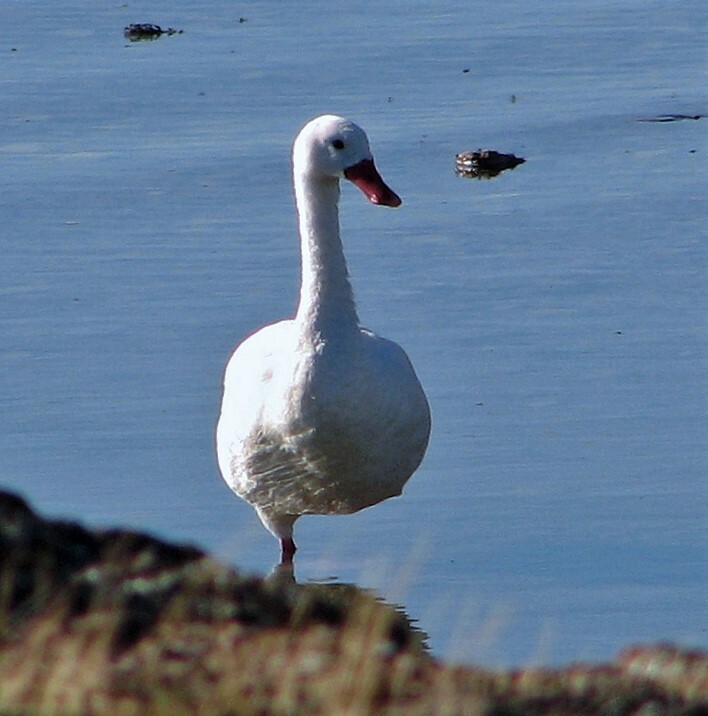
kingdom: Animalia
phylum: Chordata
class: Aves
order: Anseriformes
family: Anatidae
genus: Coscoroba
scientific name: Coscoroba coscoroba
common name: Coscoroba swan
